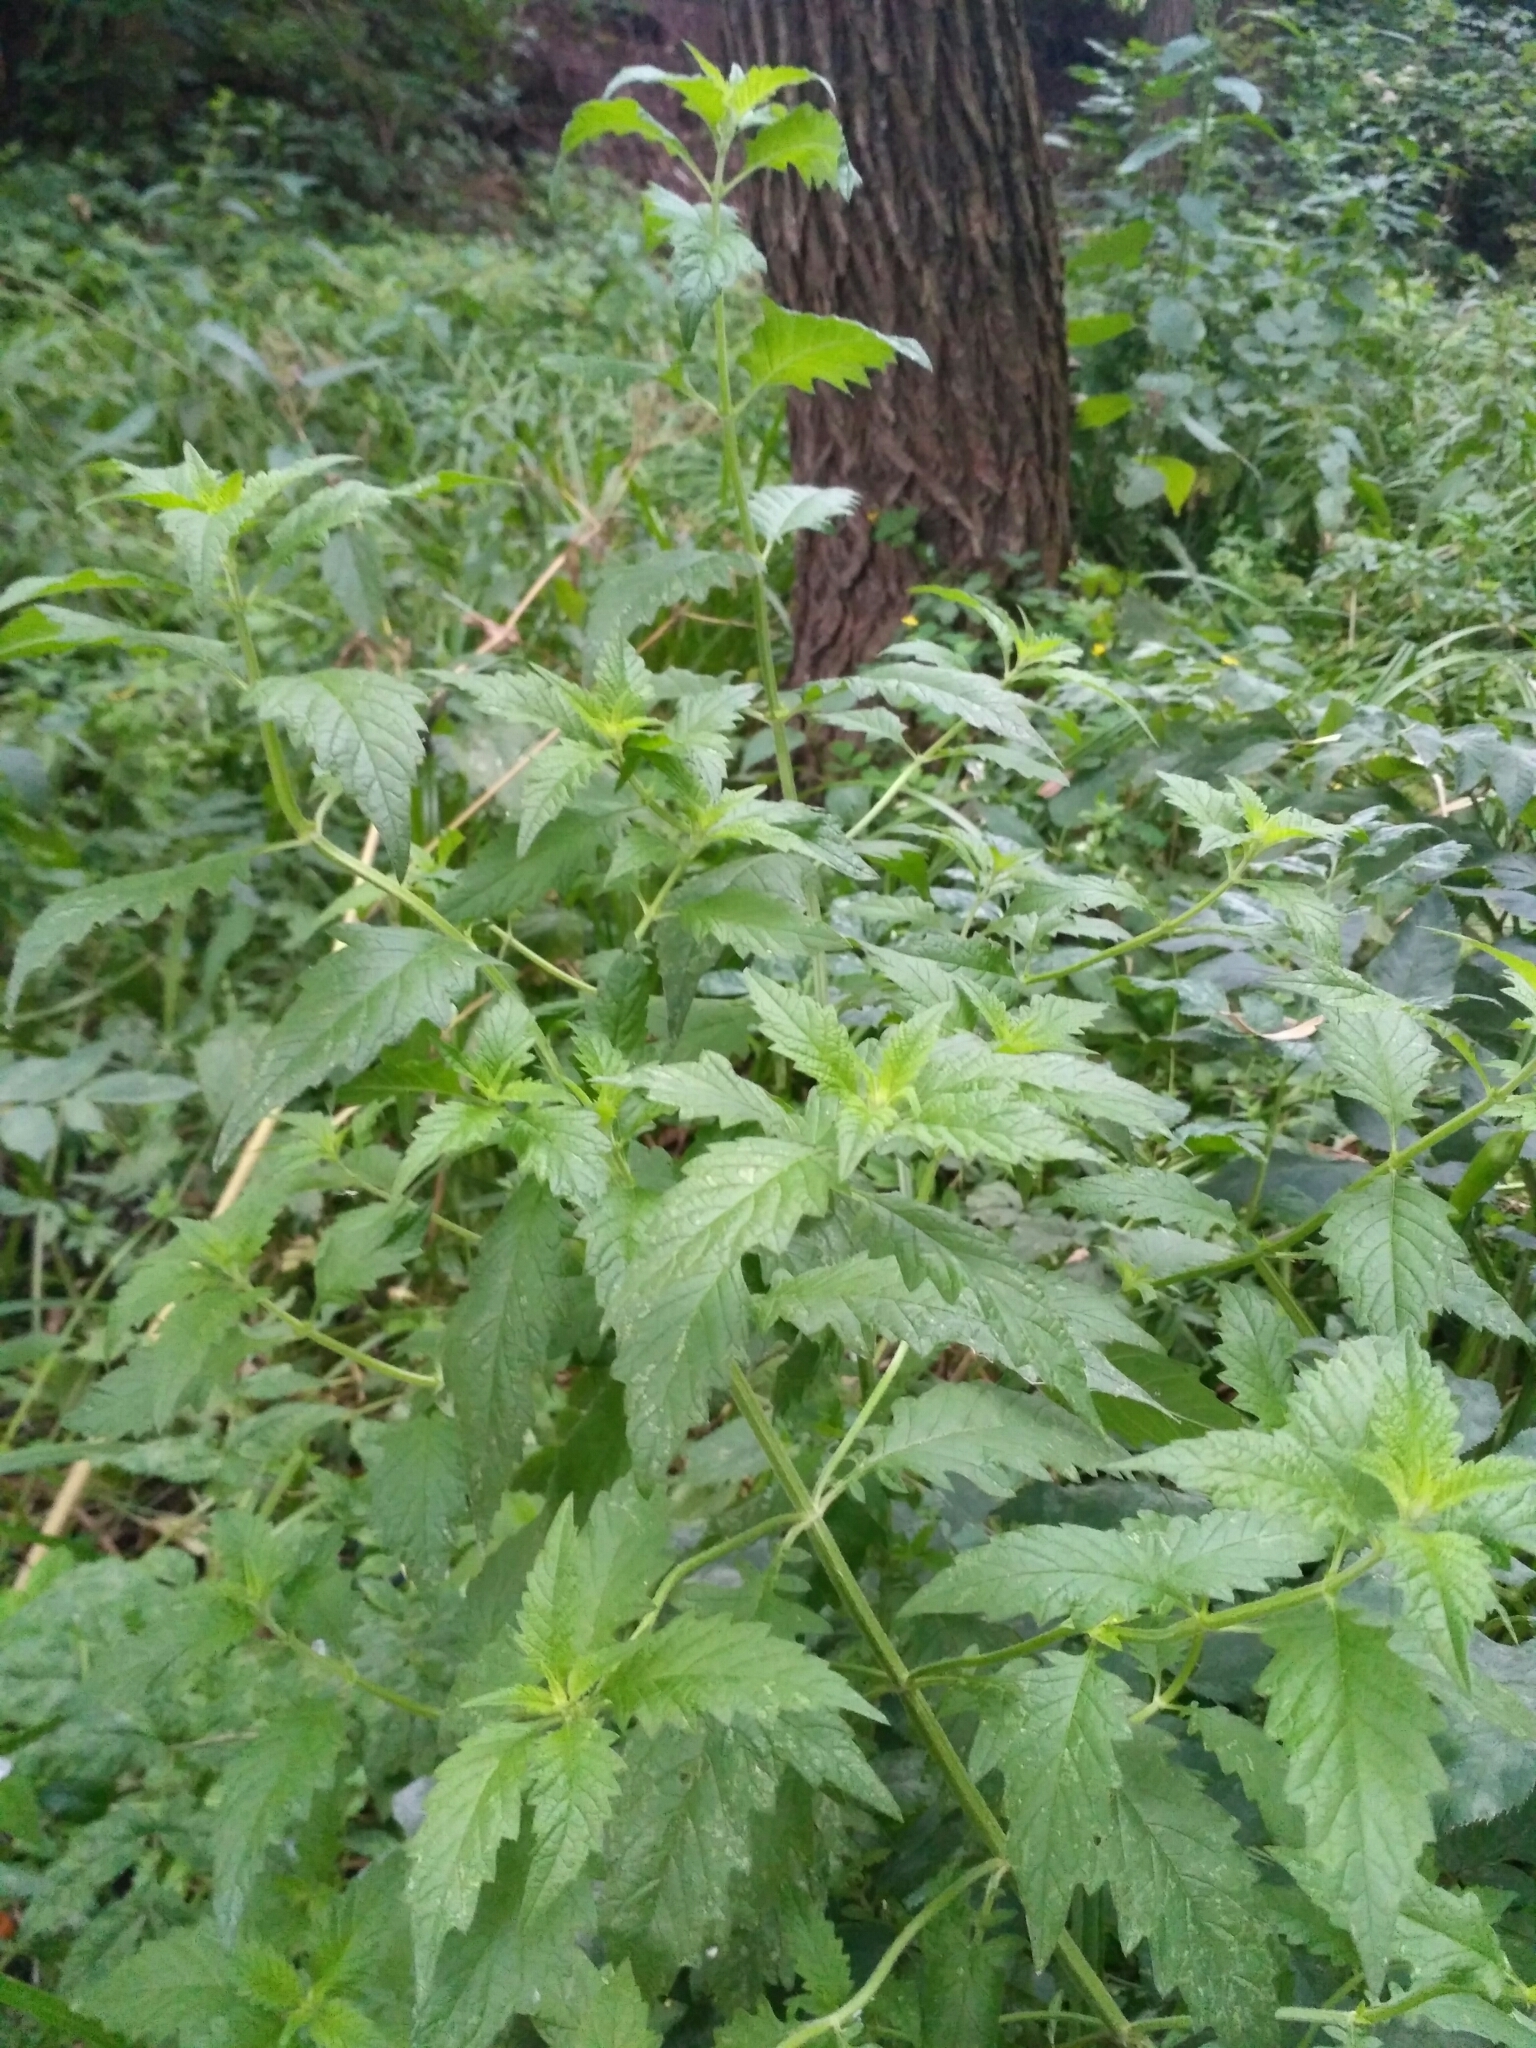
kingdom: Plantae
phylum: Tracheophyta
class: Magnoliopsida
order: Lamiales
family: Lamiaceae
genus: Lycopus
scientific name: Lycopus europaeus
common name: European bugleweed
